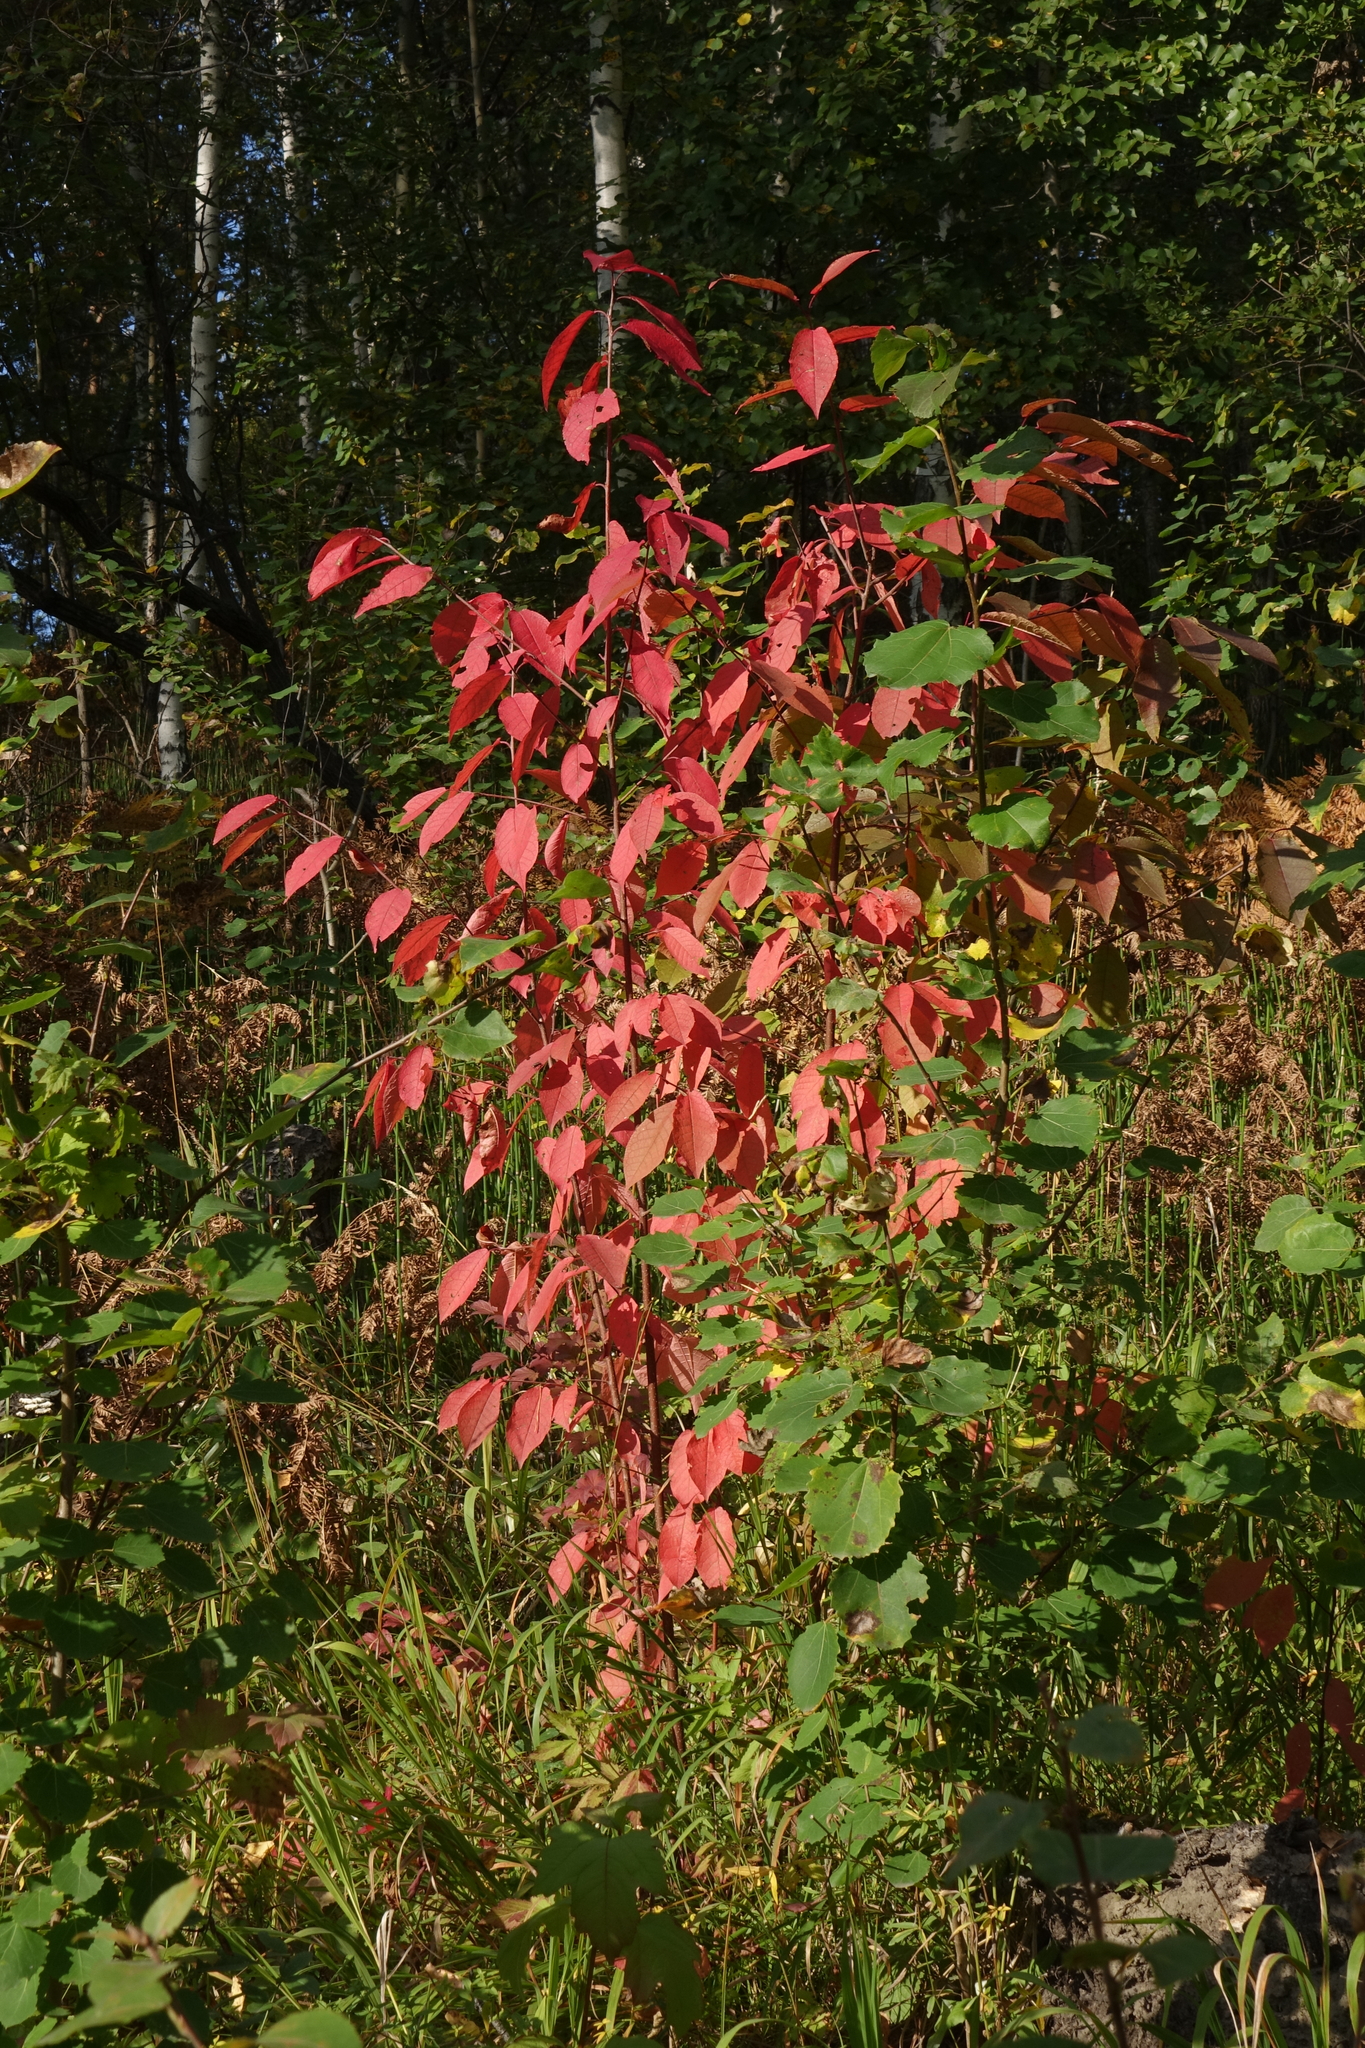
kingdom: Plantae
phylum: Tracheophyta
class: Magnoliopsida
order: Rosales
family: Rosaceae
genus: Prunus
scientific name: Prunus padus
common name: Bird cherry
